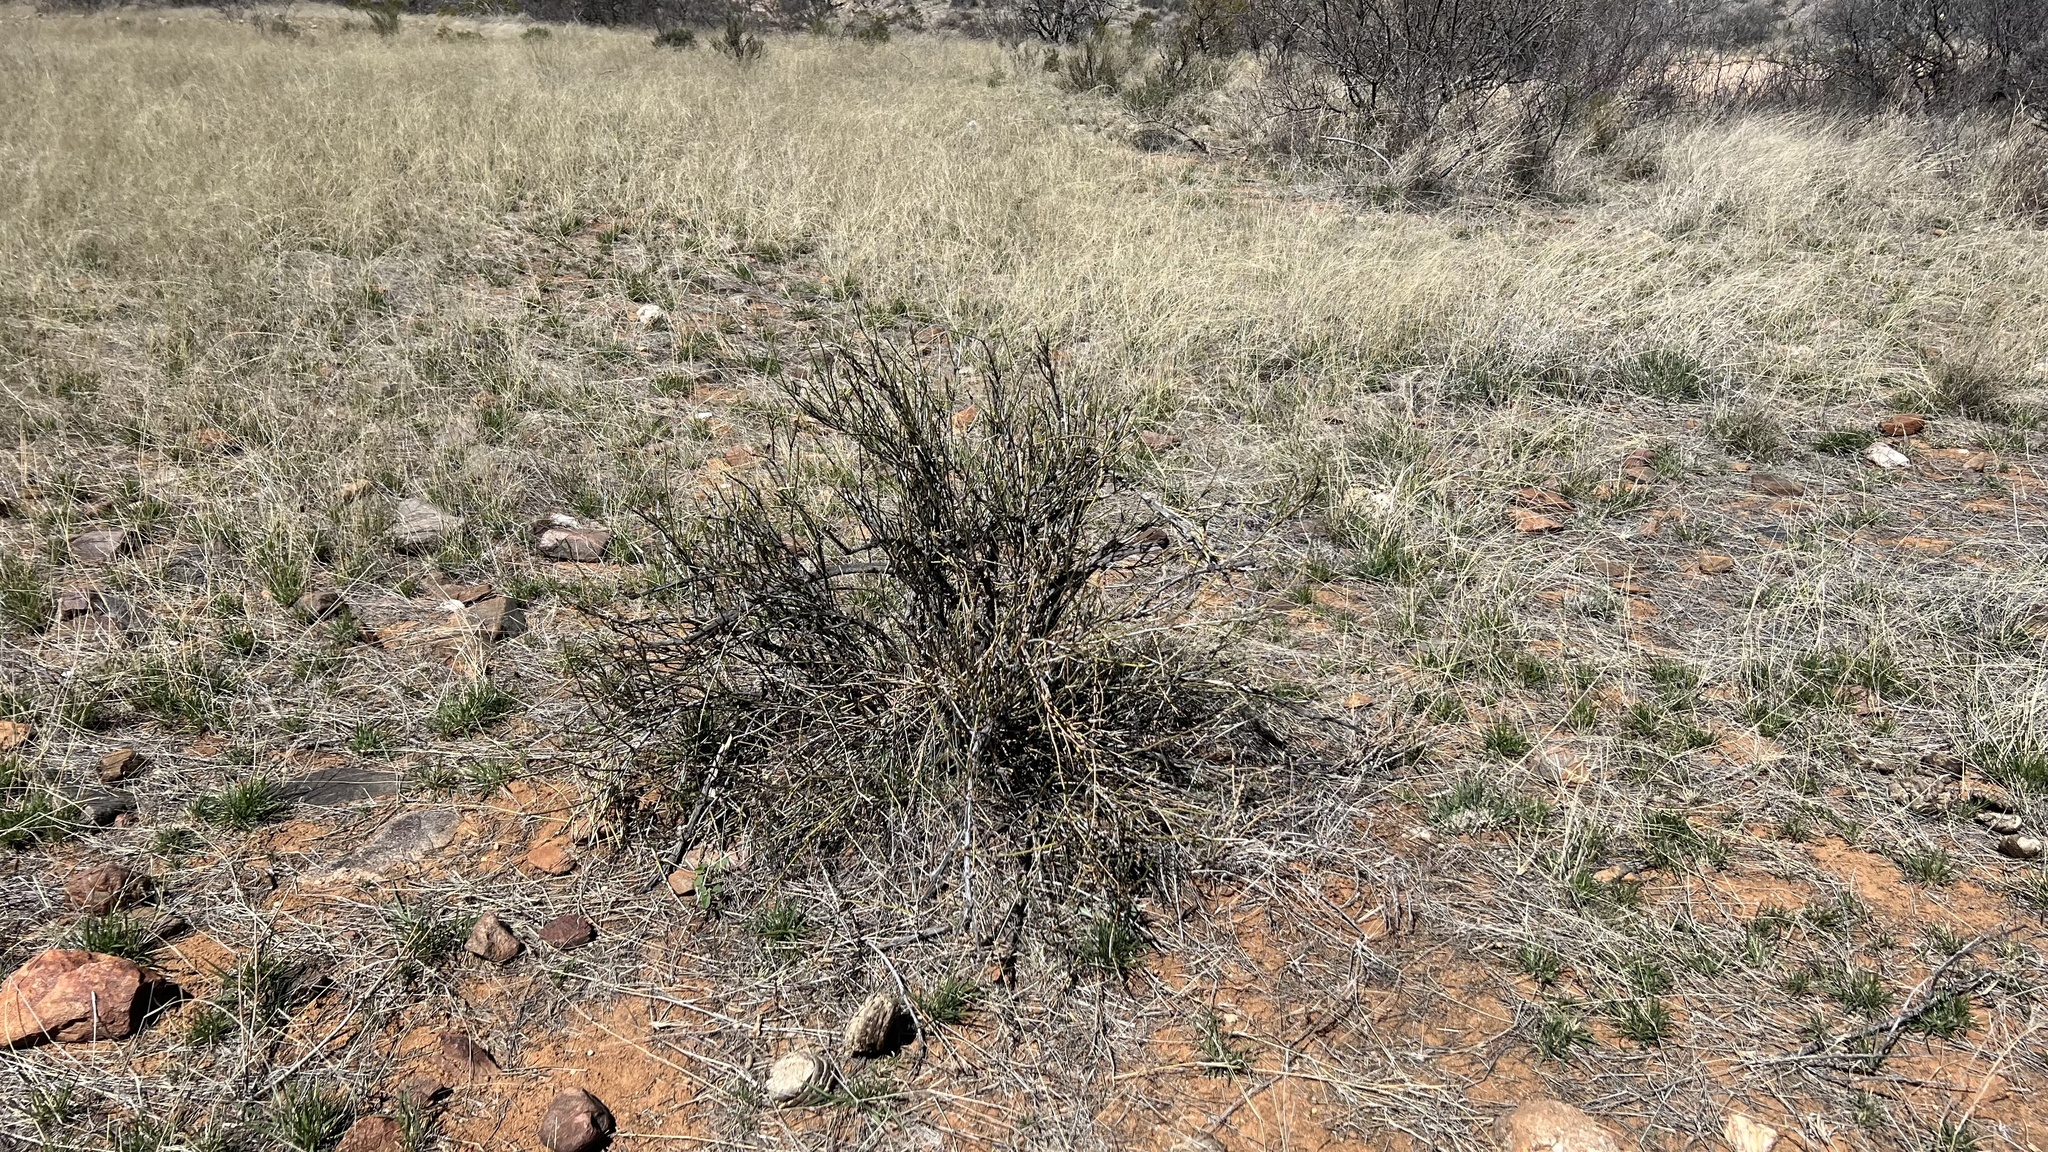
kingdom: Plantae
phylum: Tracheophyta
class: Gnetopsida
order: Ephedrales
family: Ephedraceae
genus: Ephedra
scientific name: Ephedra trifurca
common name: Mexican-tea
